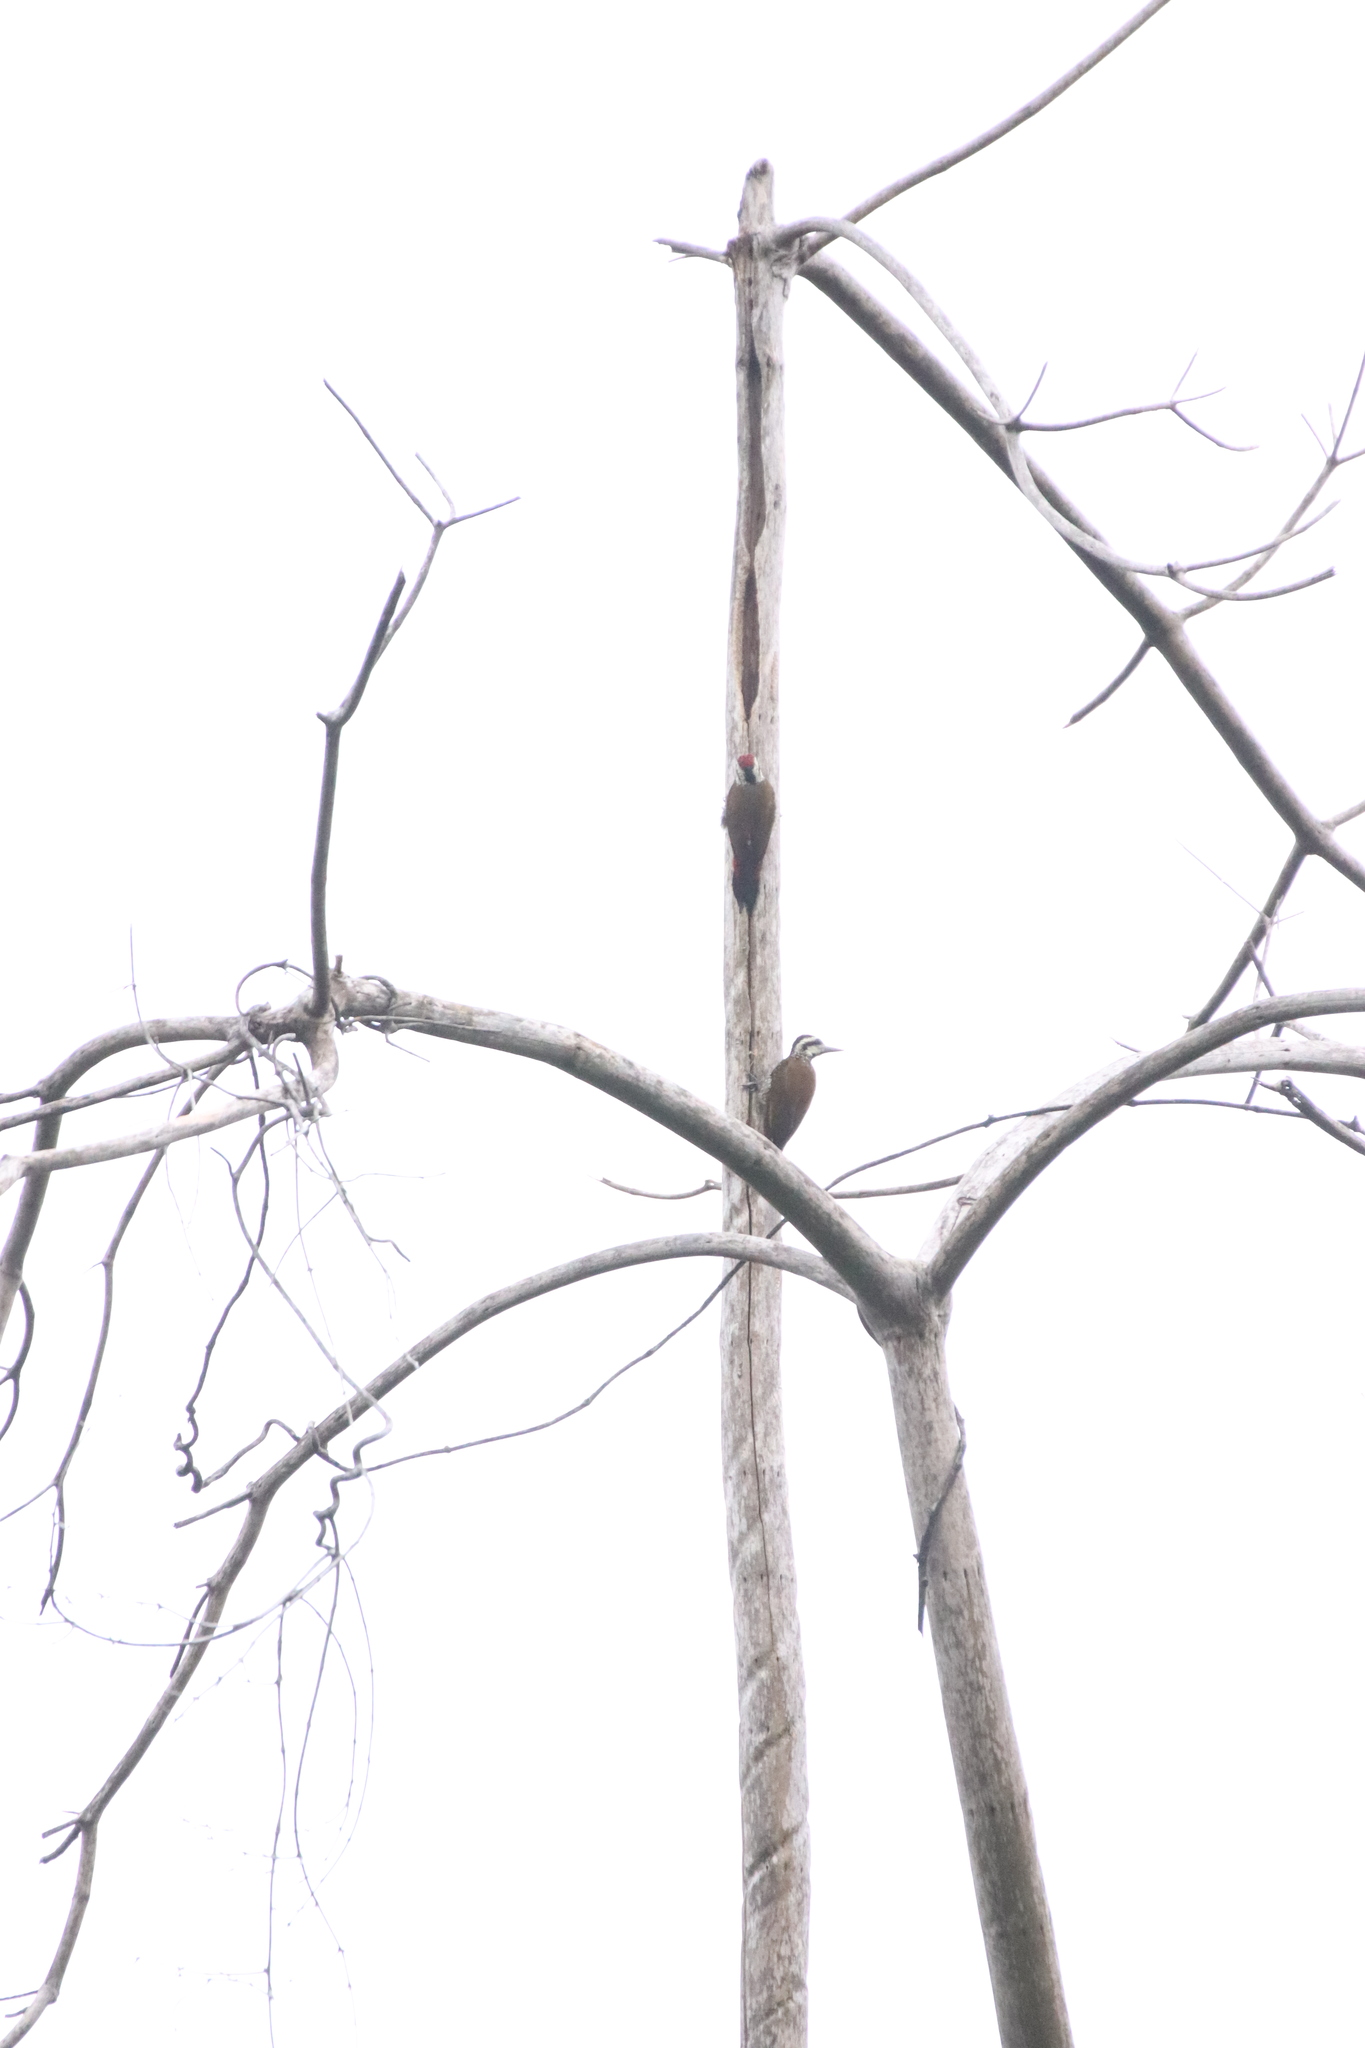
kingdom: Animalia
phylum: Chordata
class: Aves
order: Piciformes
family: Picidae
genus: Chloropicus
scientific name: Chloropicus pyrrhogaster
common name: Fire-bellied woodpecker
